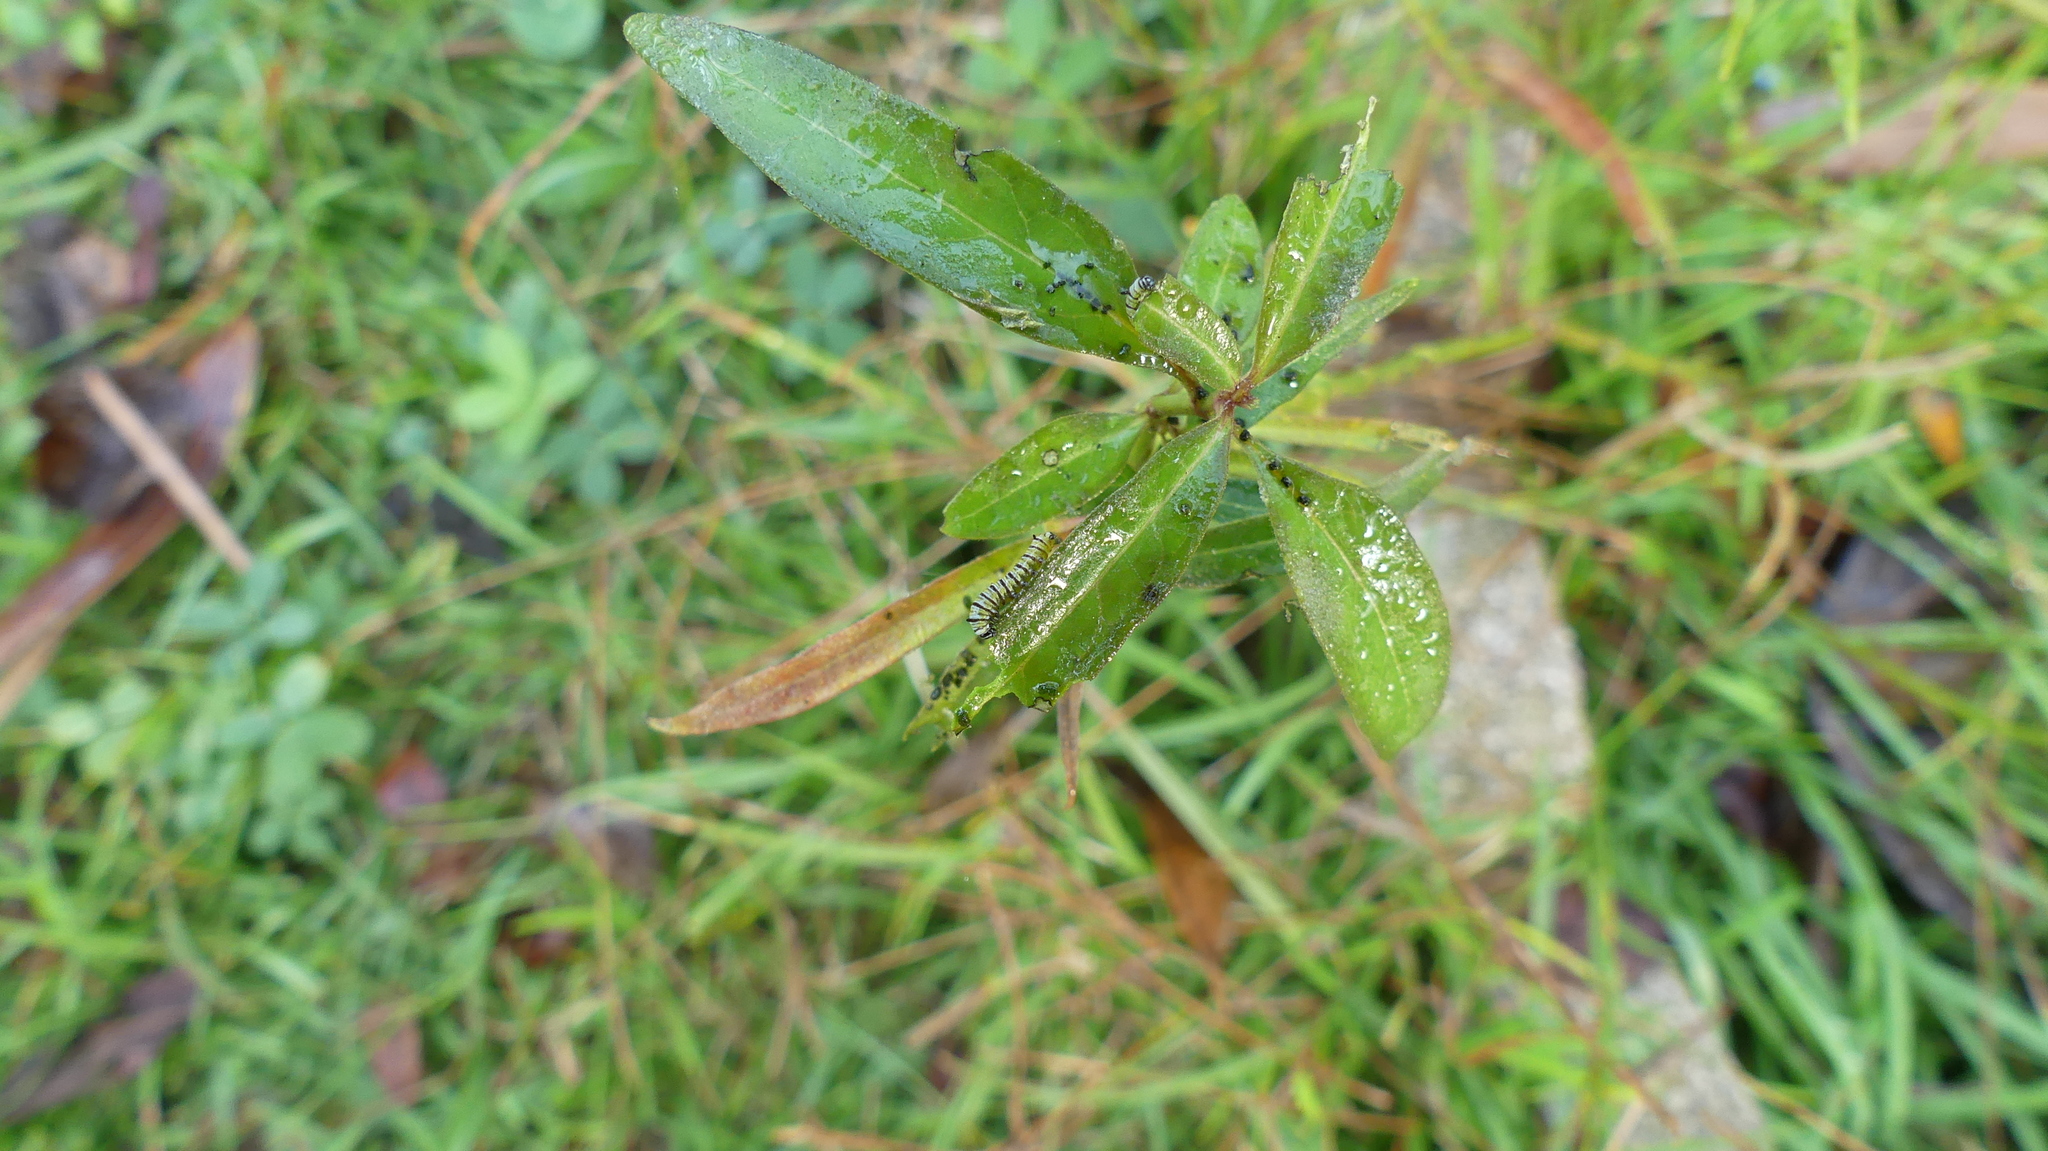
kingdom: Animalia
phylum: Arthropoda
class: Insecta
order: Lepidoptera
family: Nymphalidae
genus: Danaus
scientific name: Danaus plexippus
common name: Monarch
